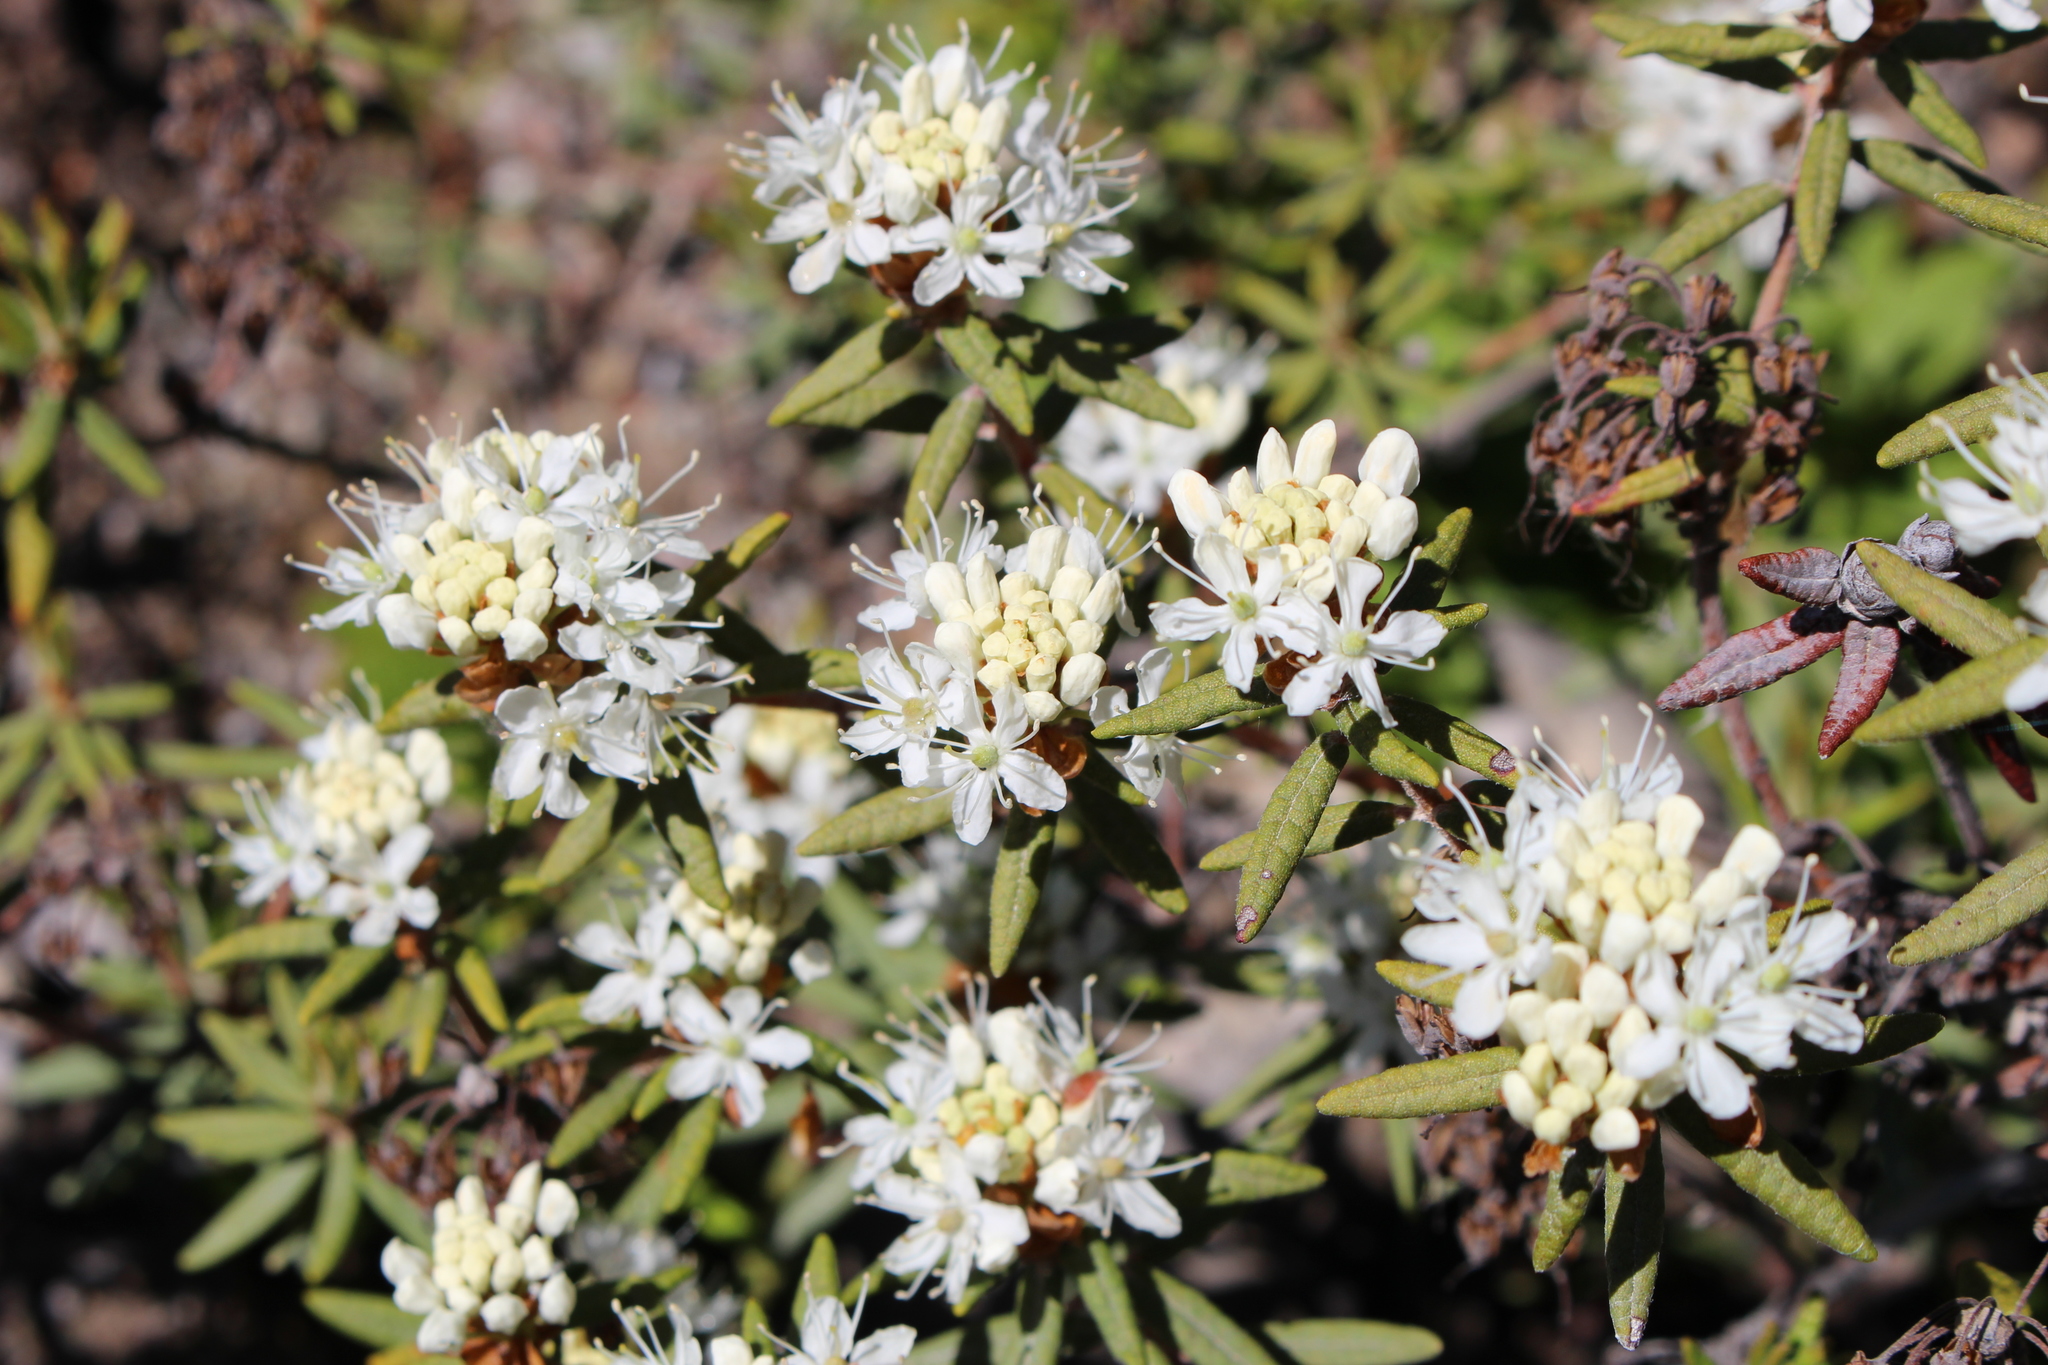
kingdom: Plantae
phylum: Tracheophyta
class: Magnoliopsida
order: Ericales
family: Ericaceae
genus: Rhododendron
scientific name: Rhododendron groenlandicum
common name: Bog labrador tea
